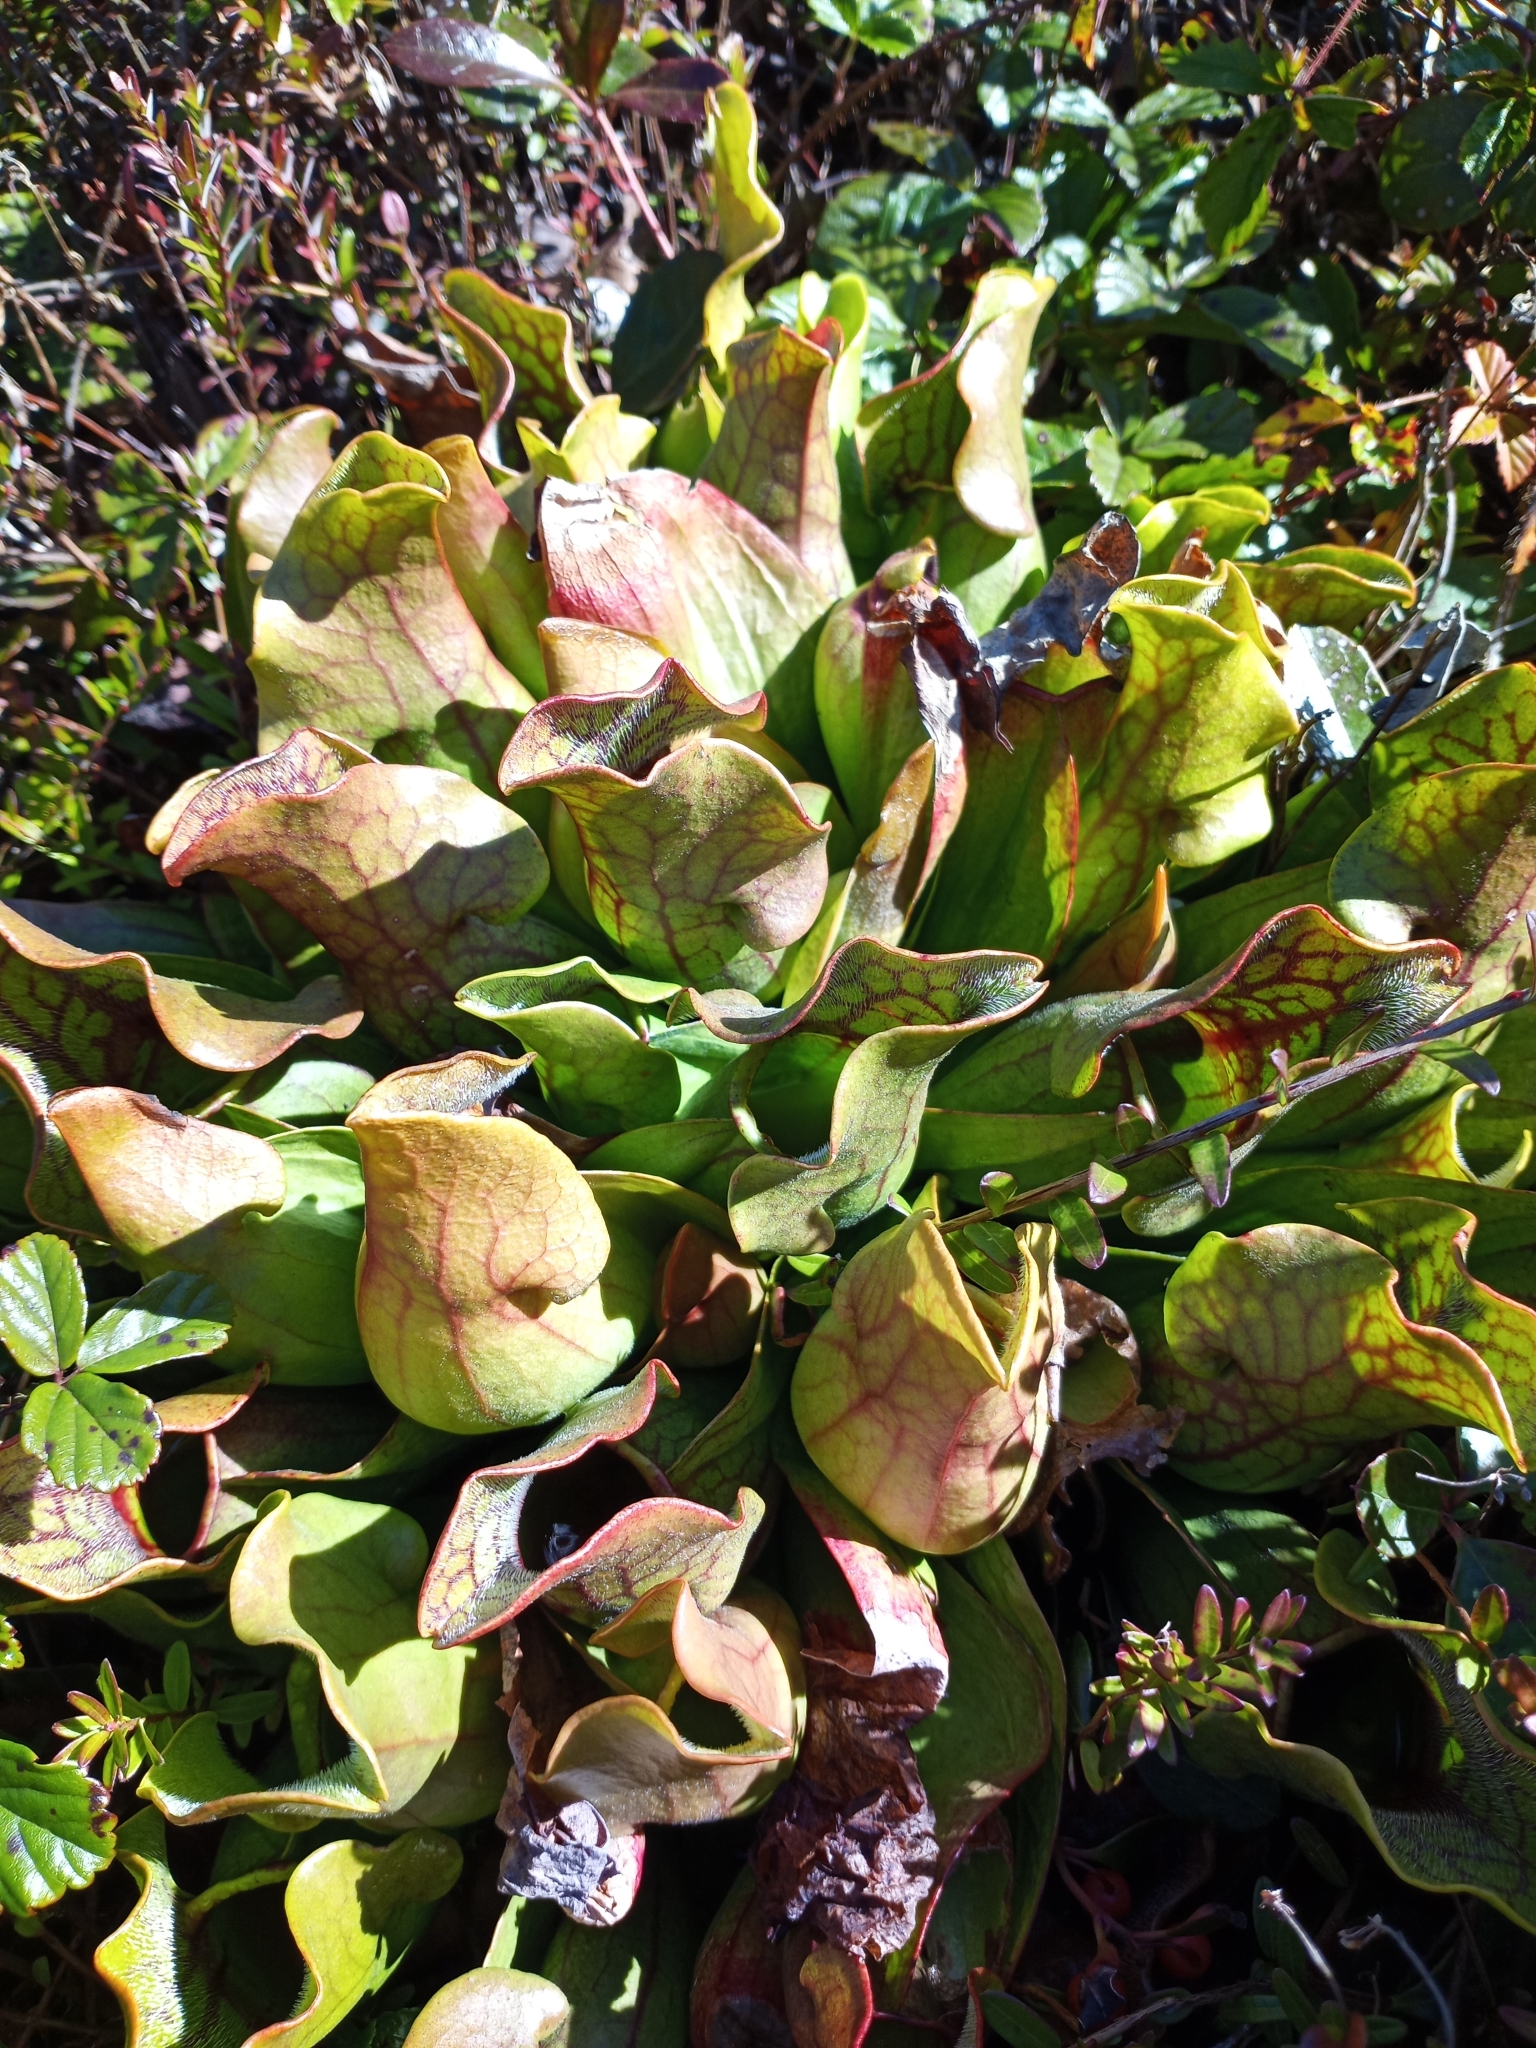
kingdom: Plantae
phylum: Tracheophyta
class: Magnoliopsida
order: Ericales
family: Sarraceniaceae
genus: Sarracenia
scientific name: Sarracenia purpurea
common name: Pitcherplant
